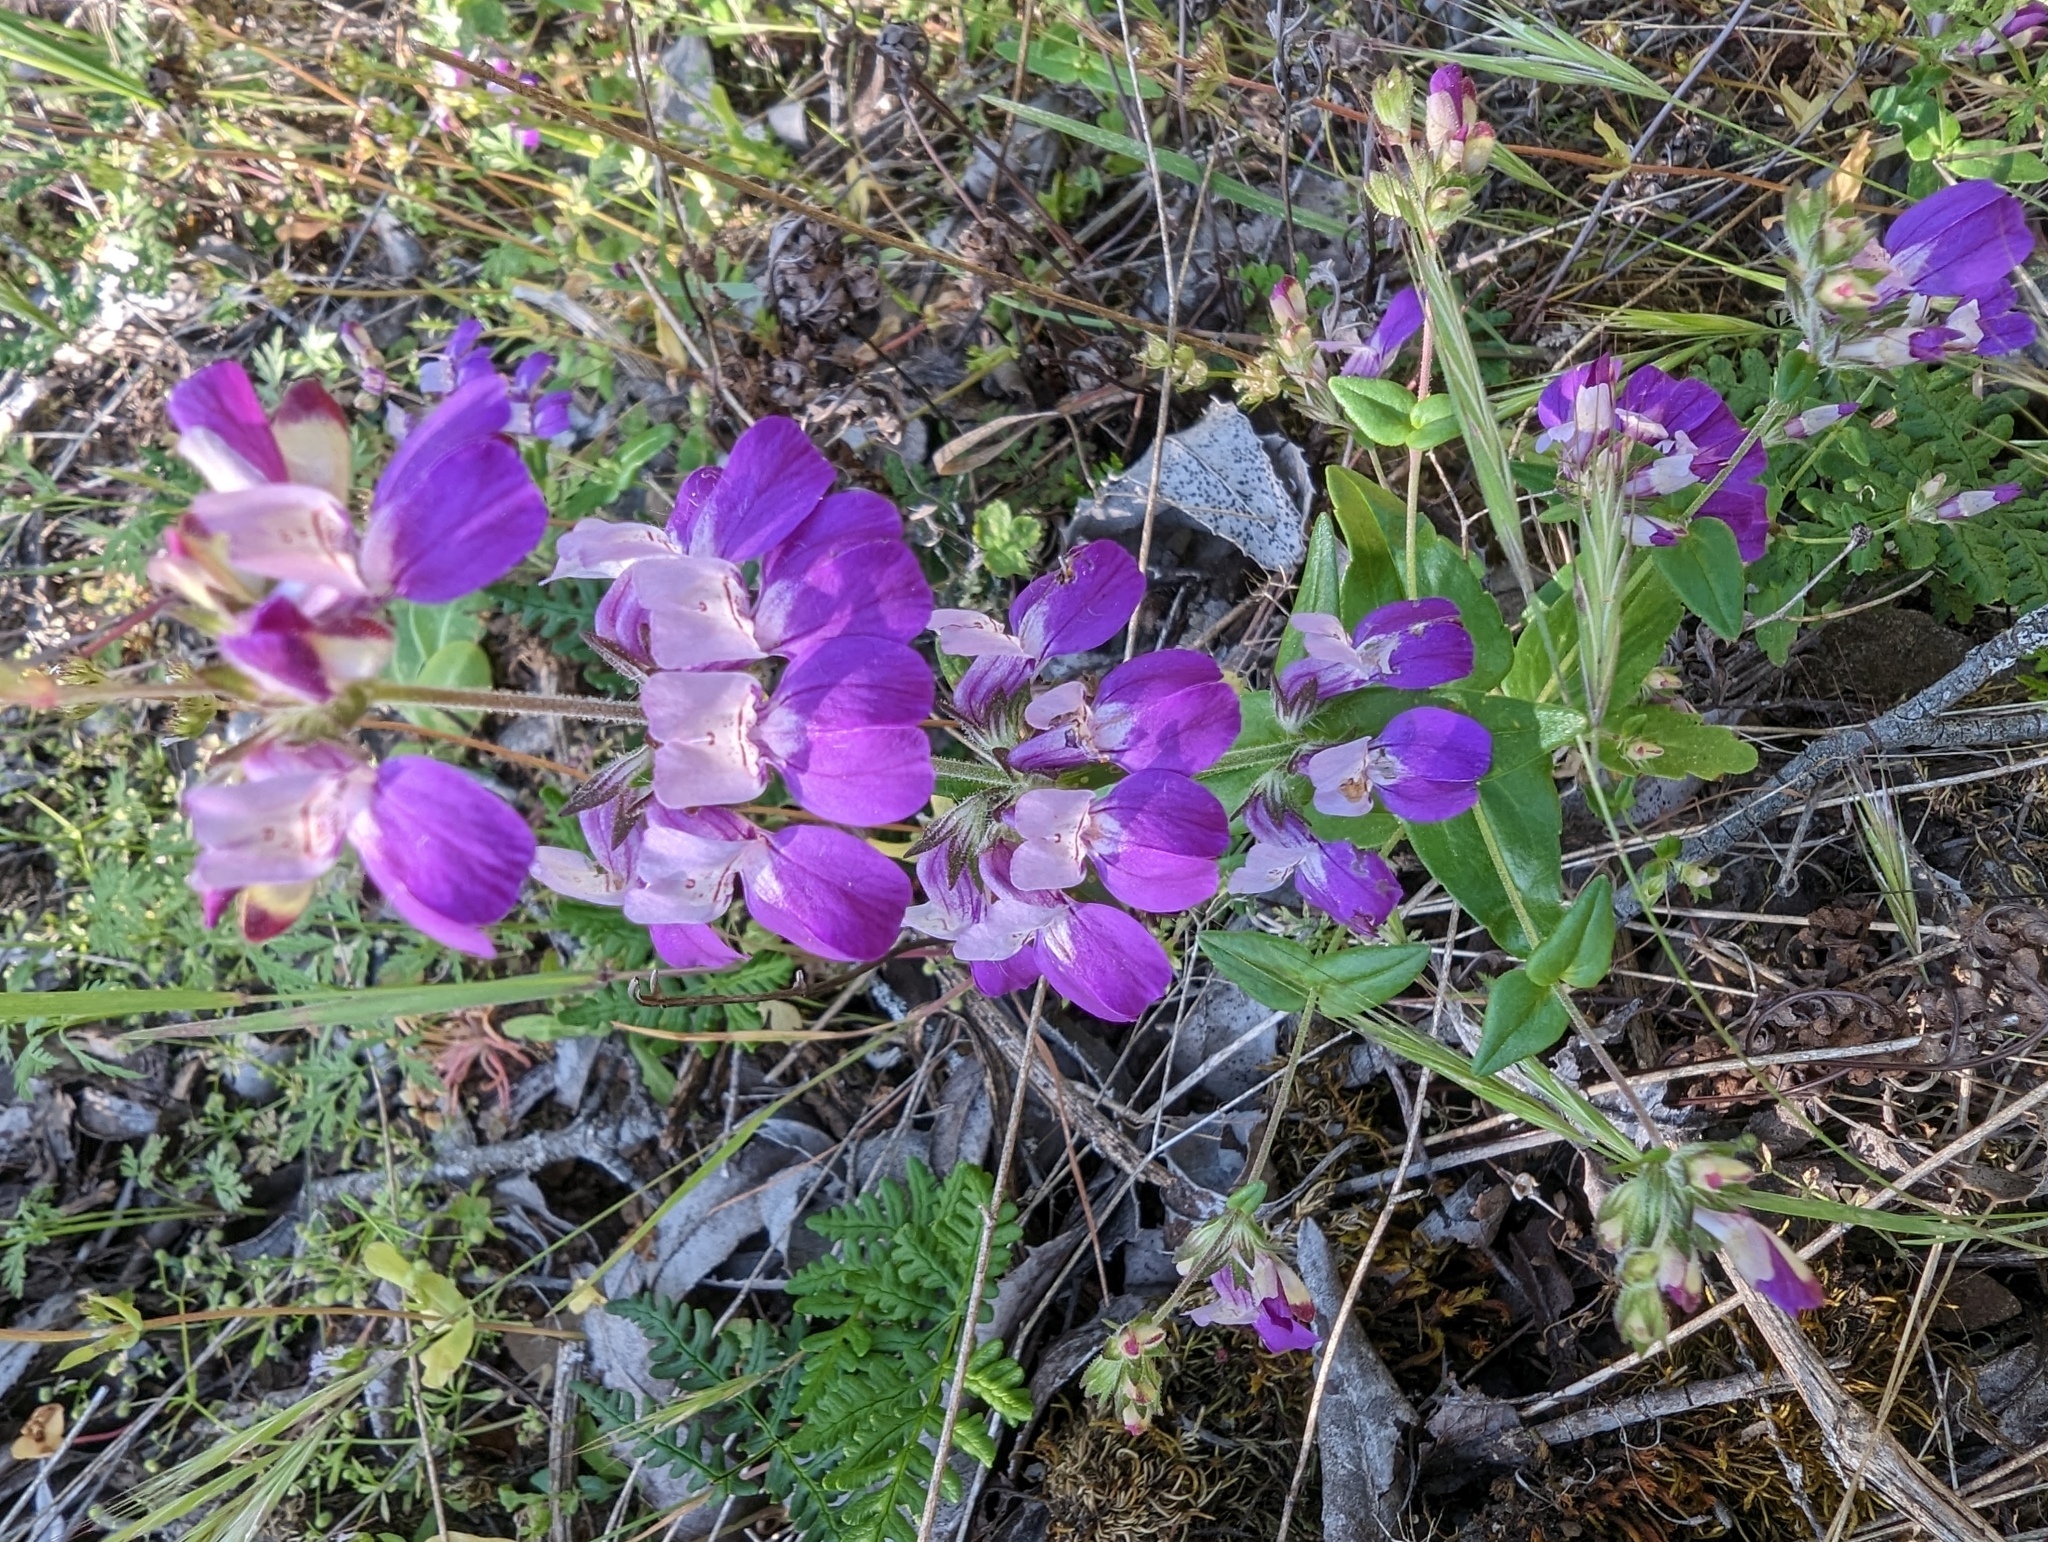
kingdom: Plantae
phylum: Tracheophyta
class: Magnoliopsida
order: Lamiales
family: Plantaginaceae
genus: Collinsia
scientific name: Collinsia heterophylla
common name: Chinese-houses
